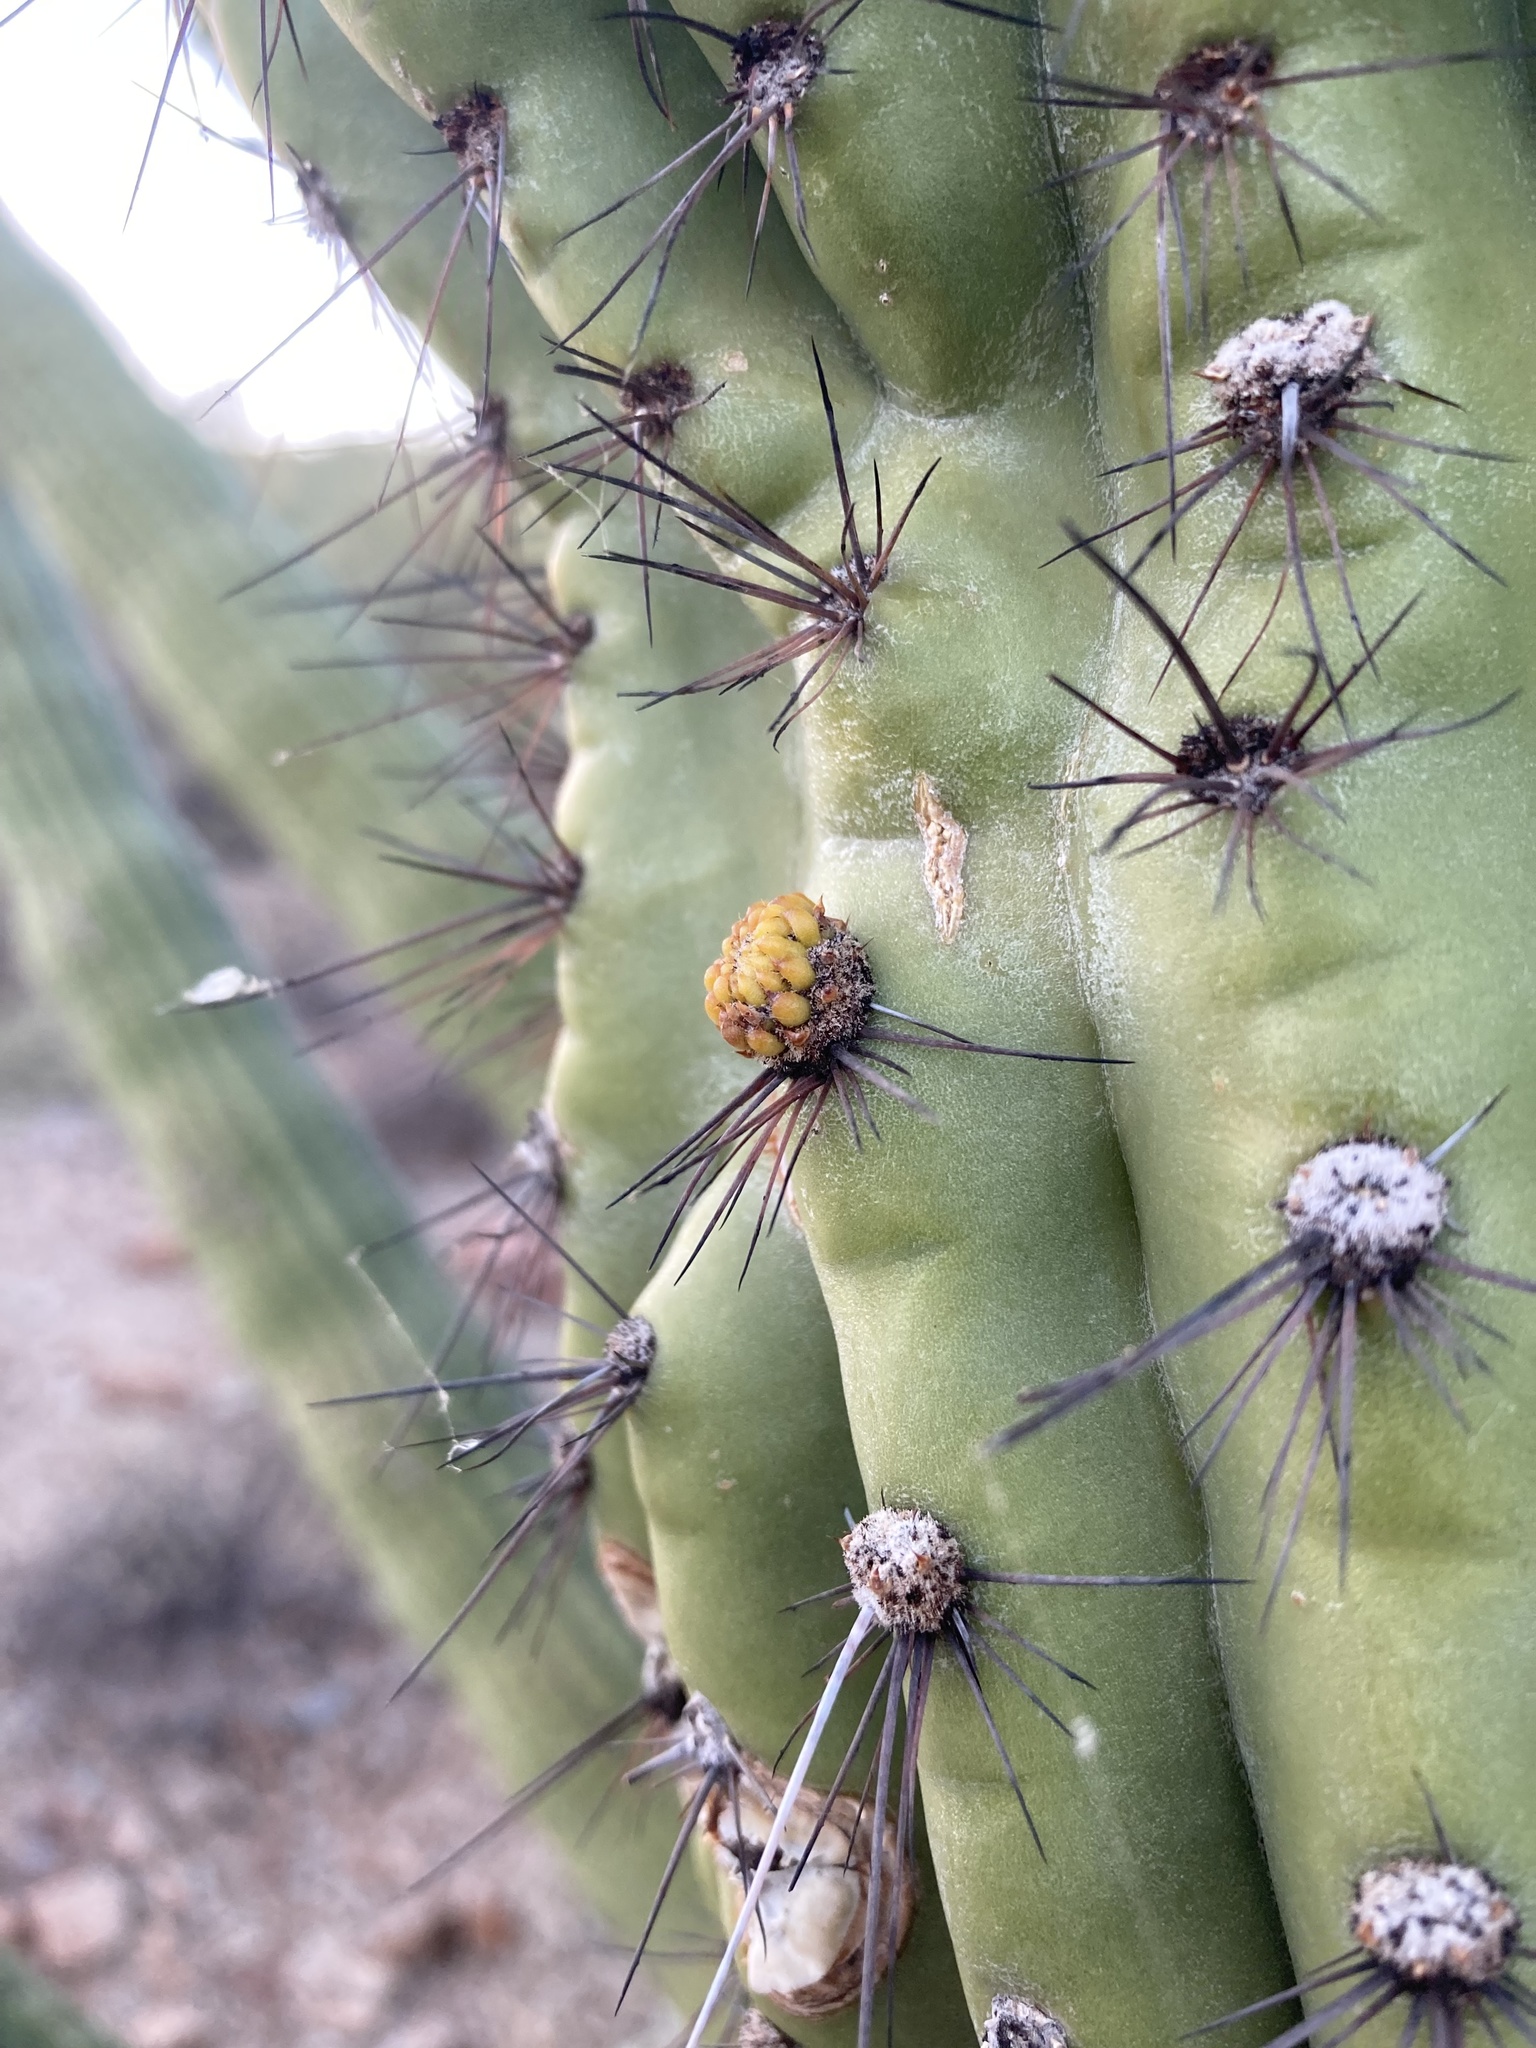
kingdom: Plantae
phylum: Tracheophyta
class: Magnoliopsida
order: Caryophyllales
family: Cactaceae
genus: Stenocereus
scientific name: Stenocereus thurberi
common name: Organ pipe cactus
